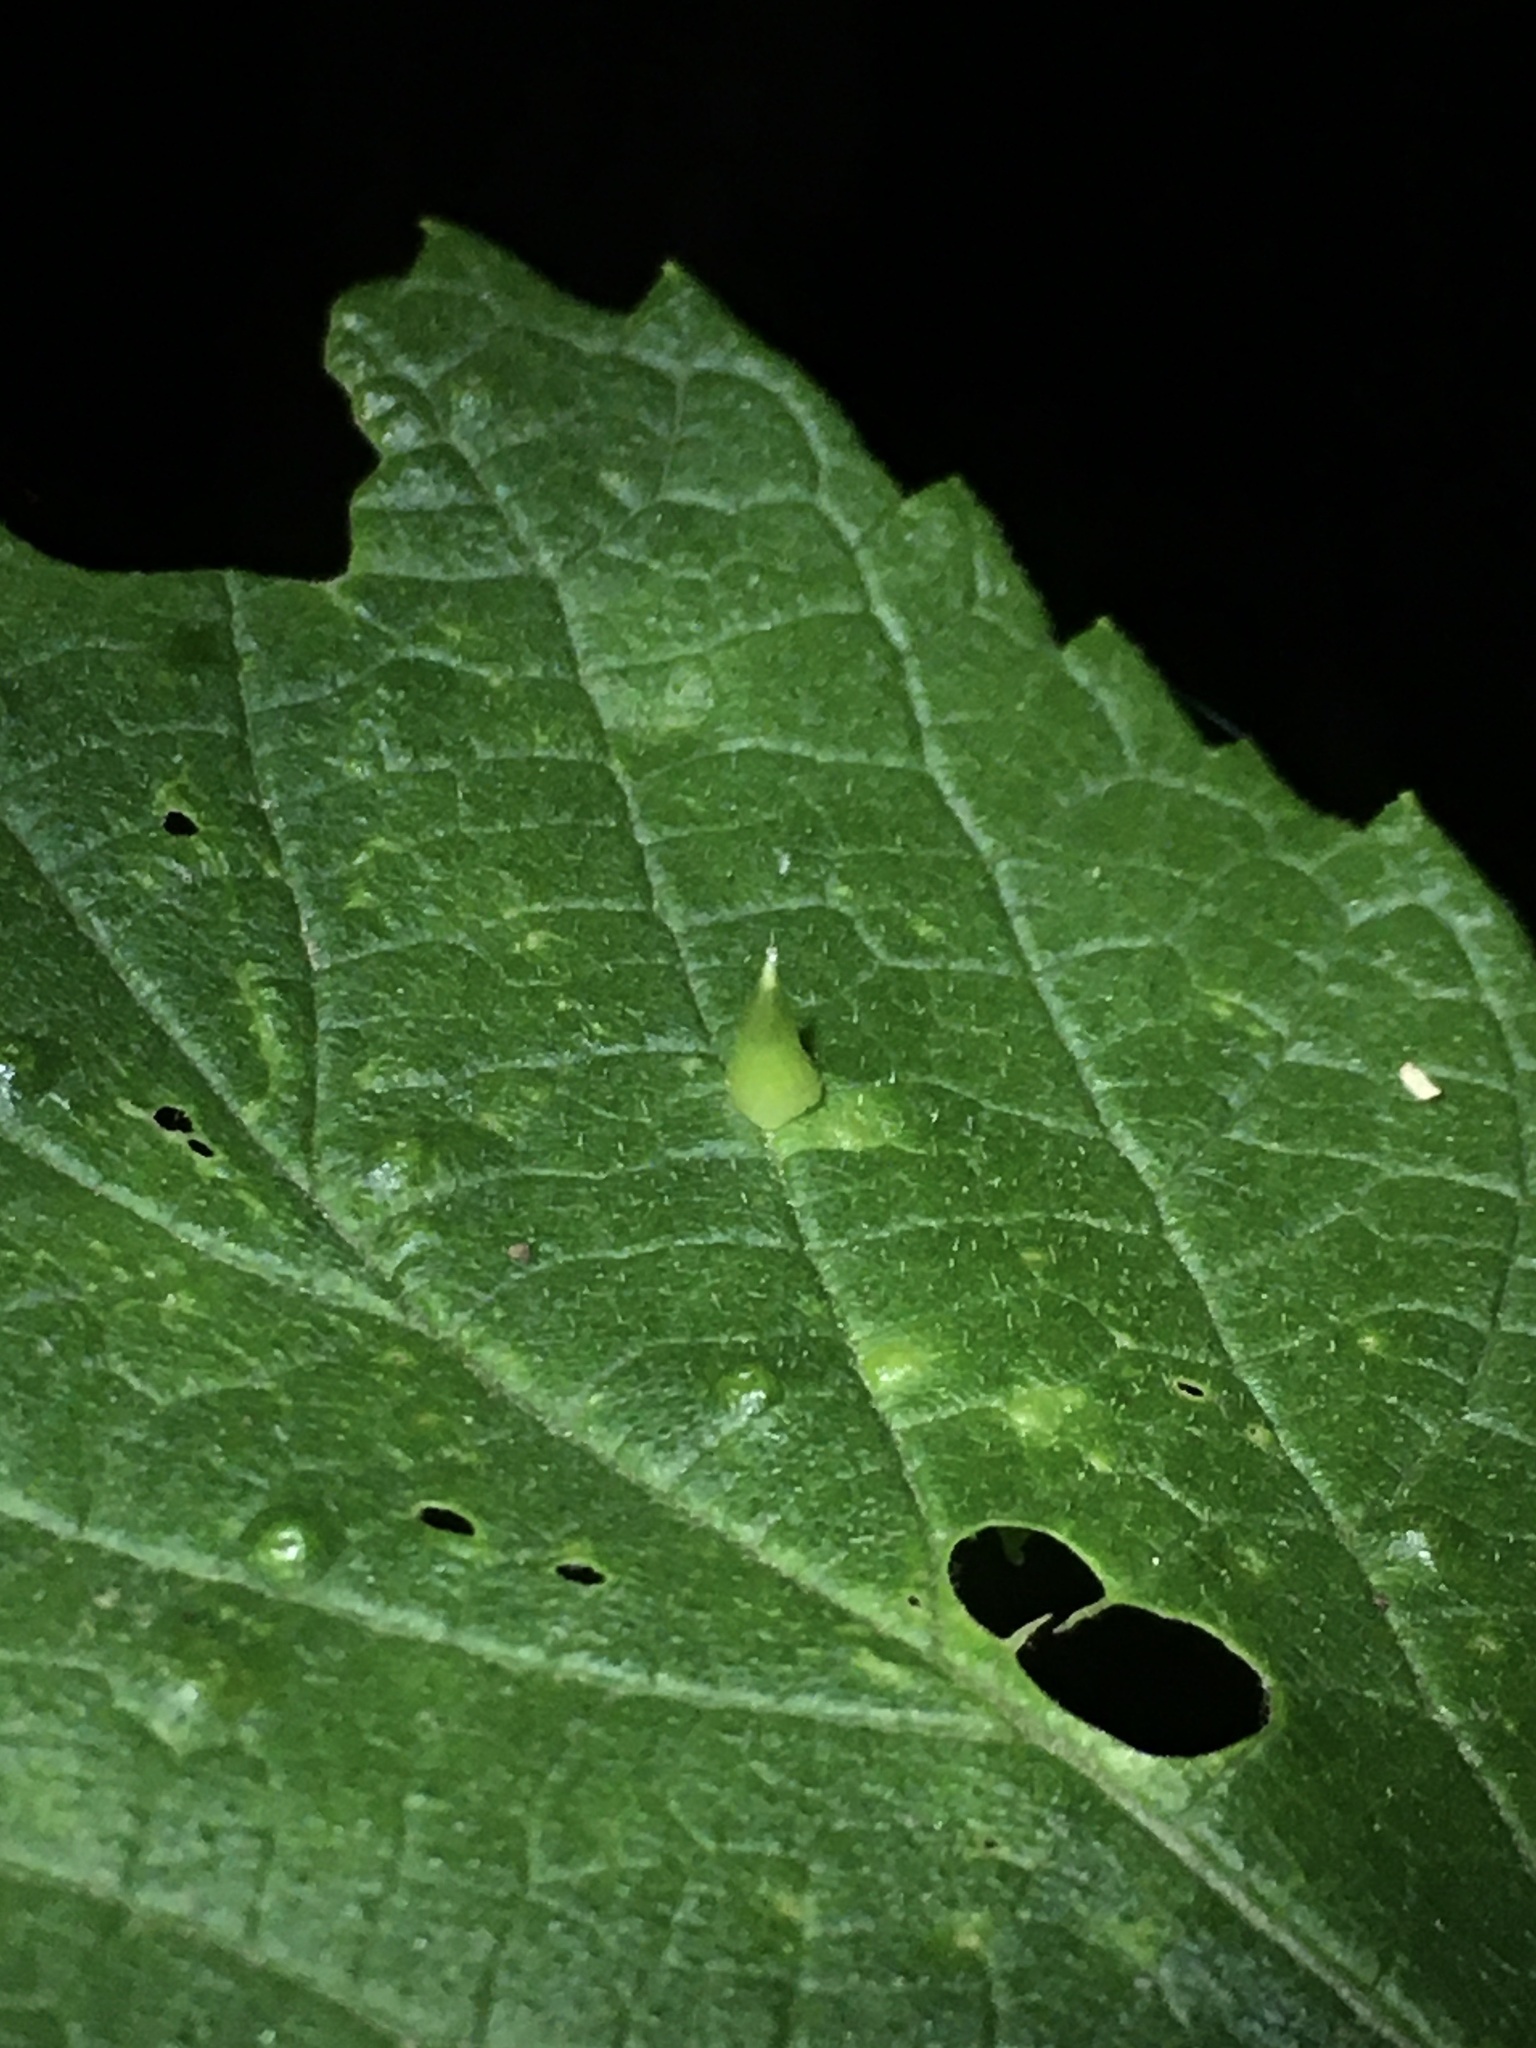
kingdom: Animalia
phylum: Arthropoda
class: Insecta
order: Diptera
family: Cecidomyiidae
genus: Celticecis
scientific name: Celticecis spiniformis
